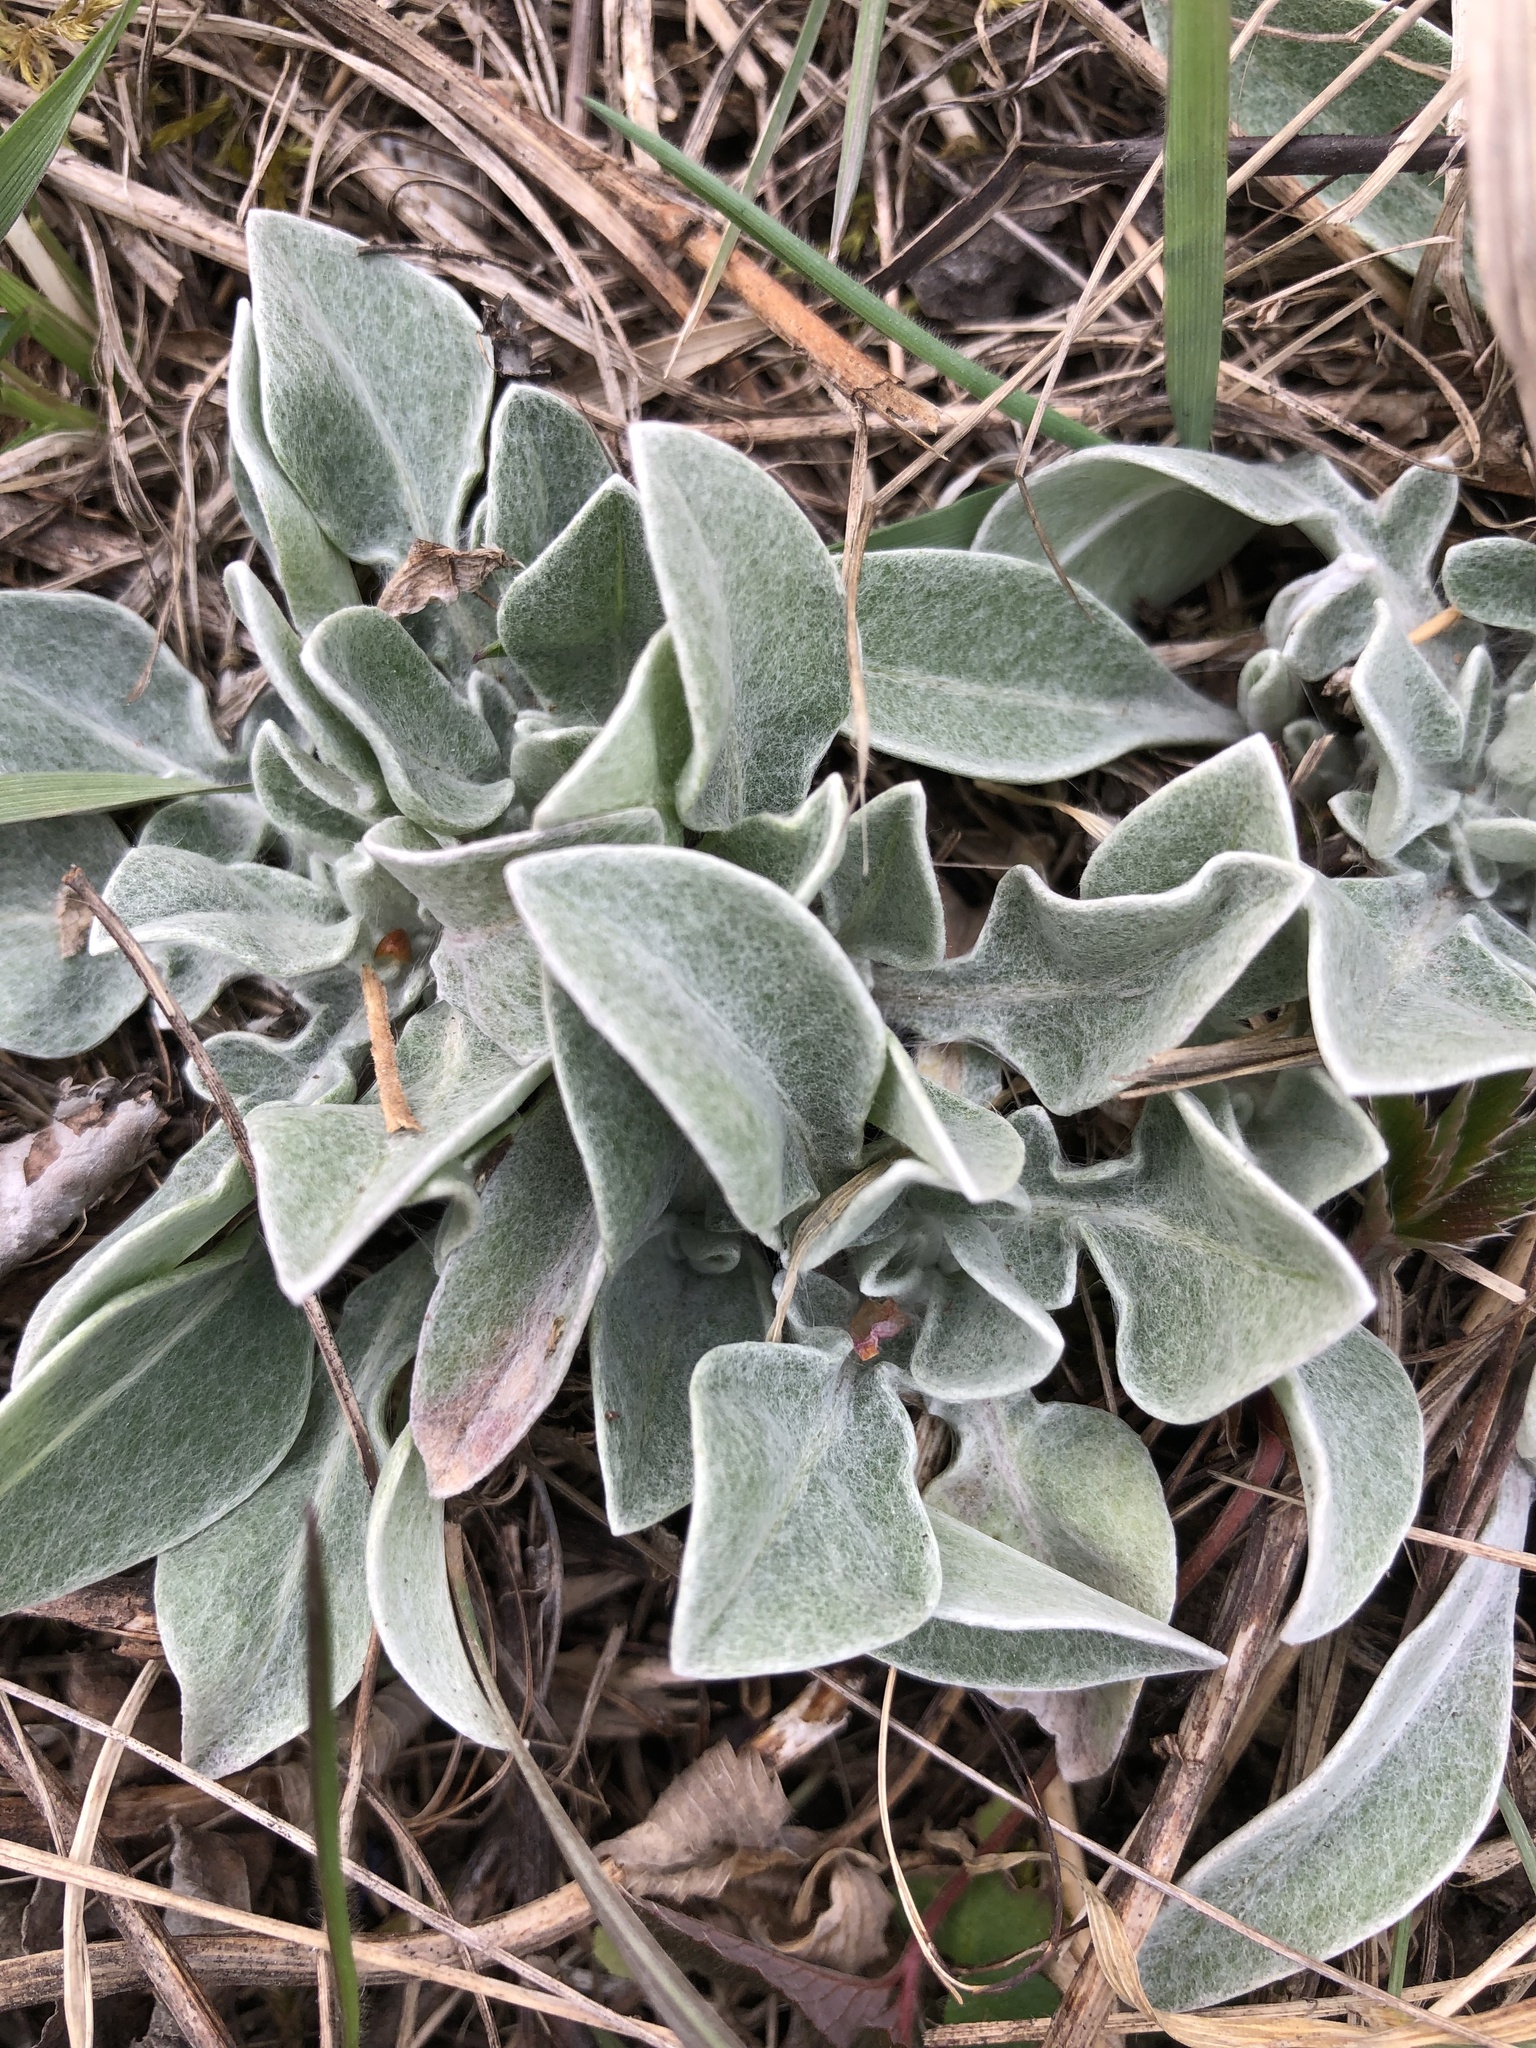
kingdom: Plantae
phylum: Tracheophyta
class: Magnoliopsida
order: Asterales
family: Asteraceae
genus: Centaurea
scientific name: Centaurea triumfettii
